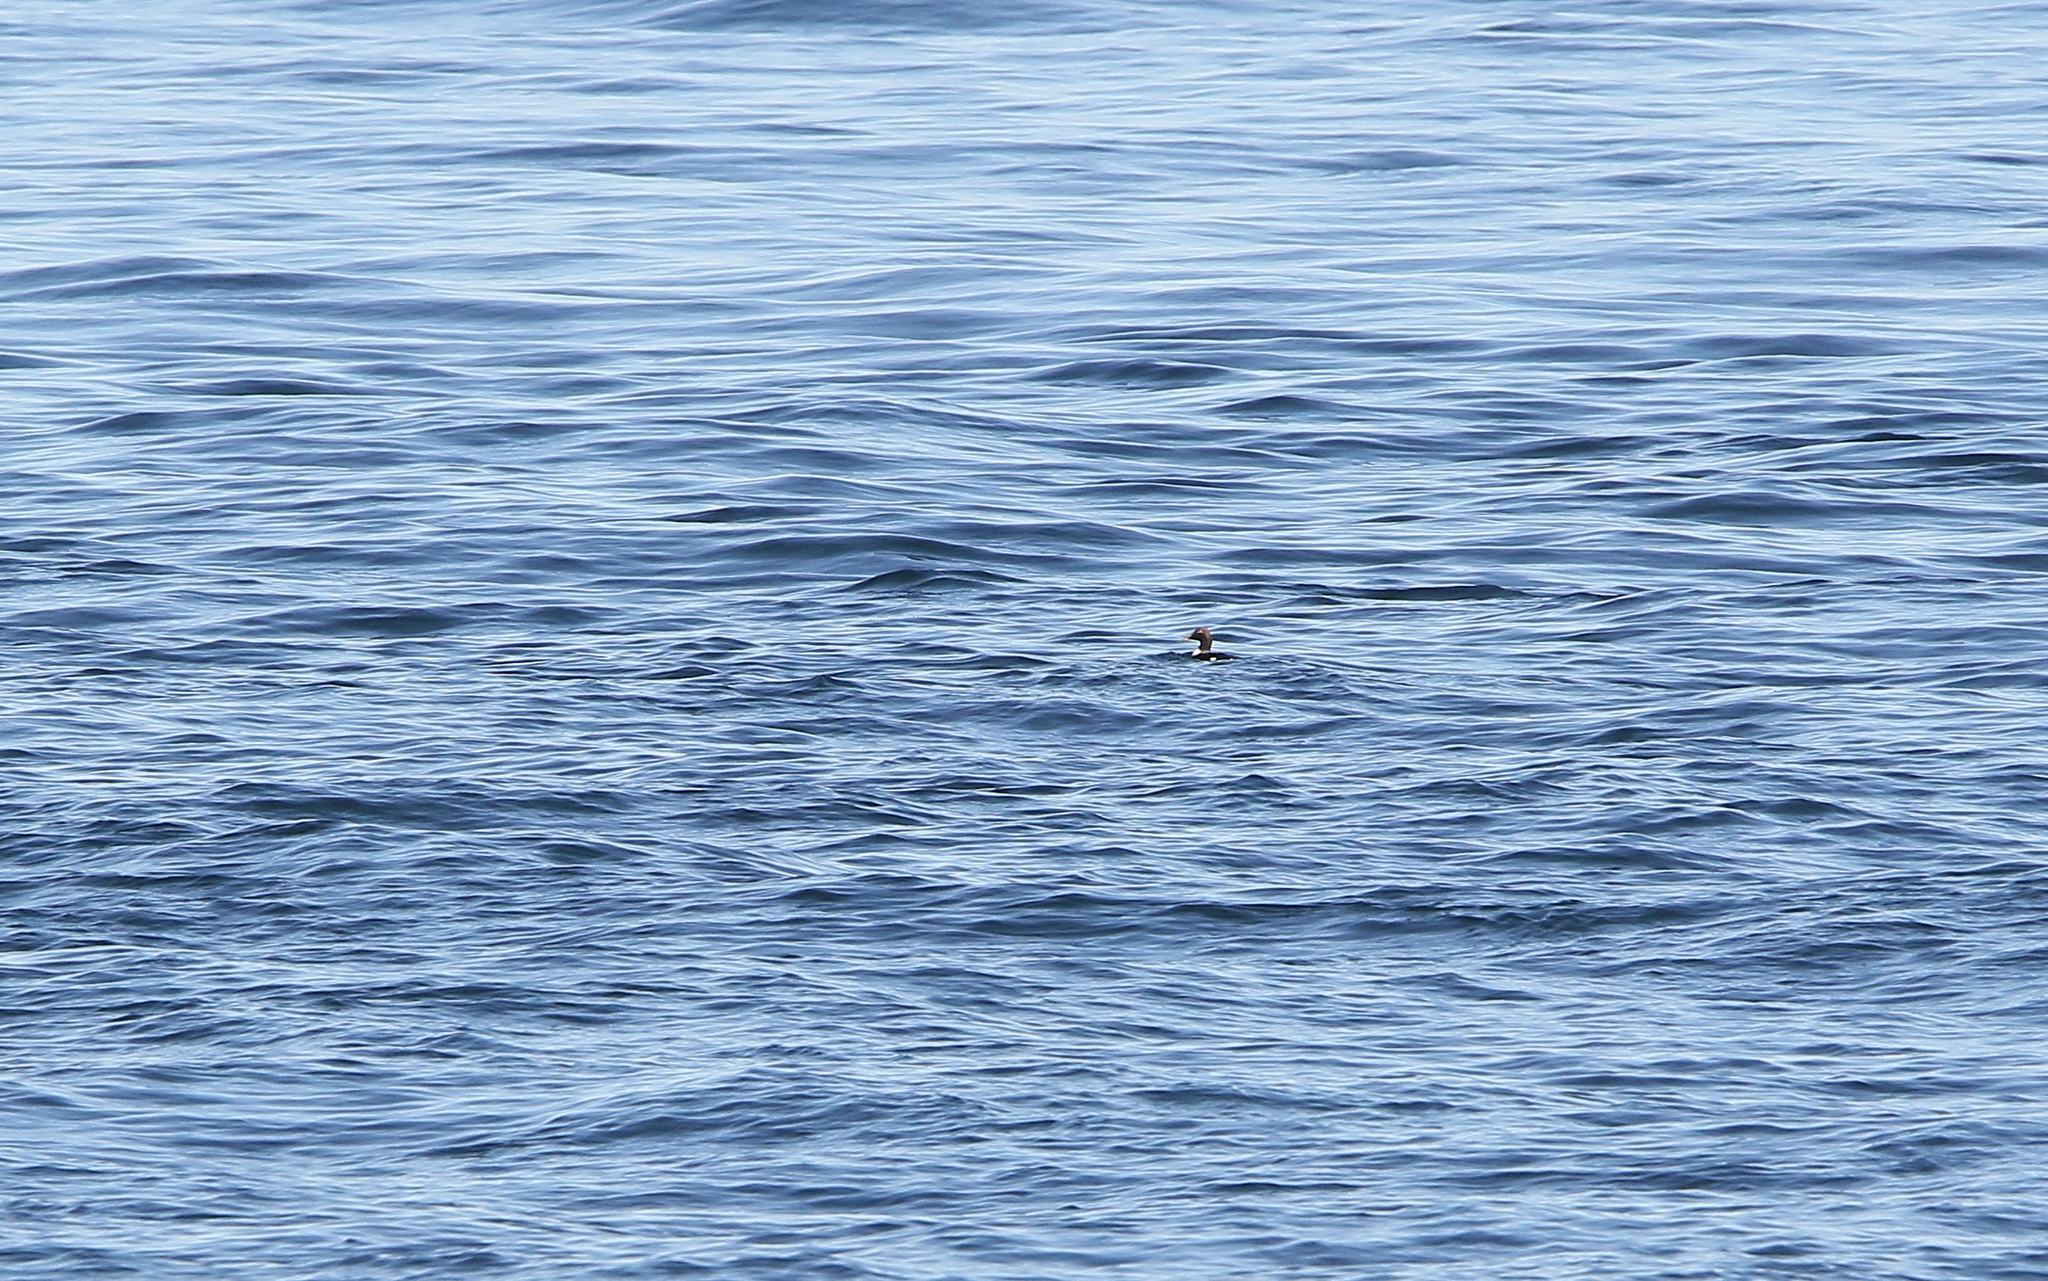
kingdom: Animalia
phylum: Chordata
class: Aves
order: Anseriformes
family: Anatidae
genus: Somateria
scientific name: Somateria mollissima
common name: Common eider
